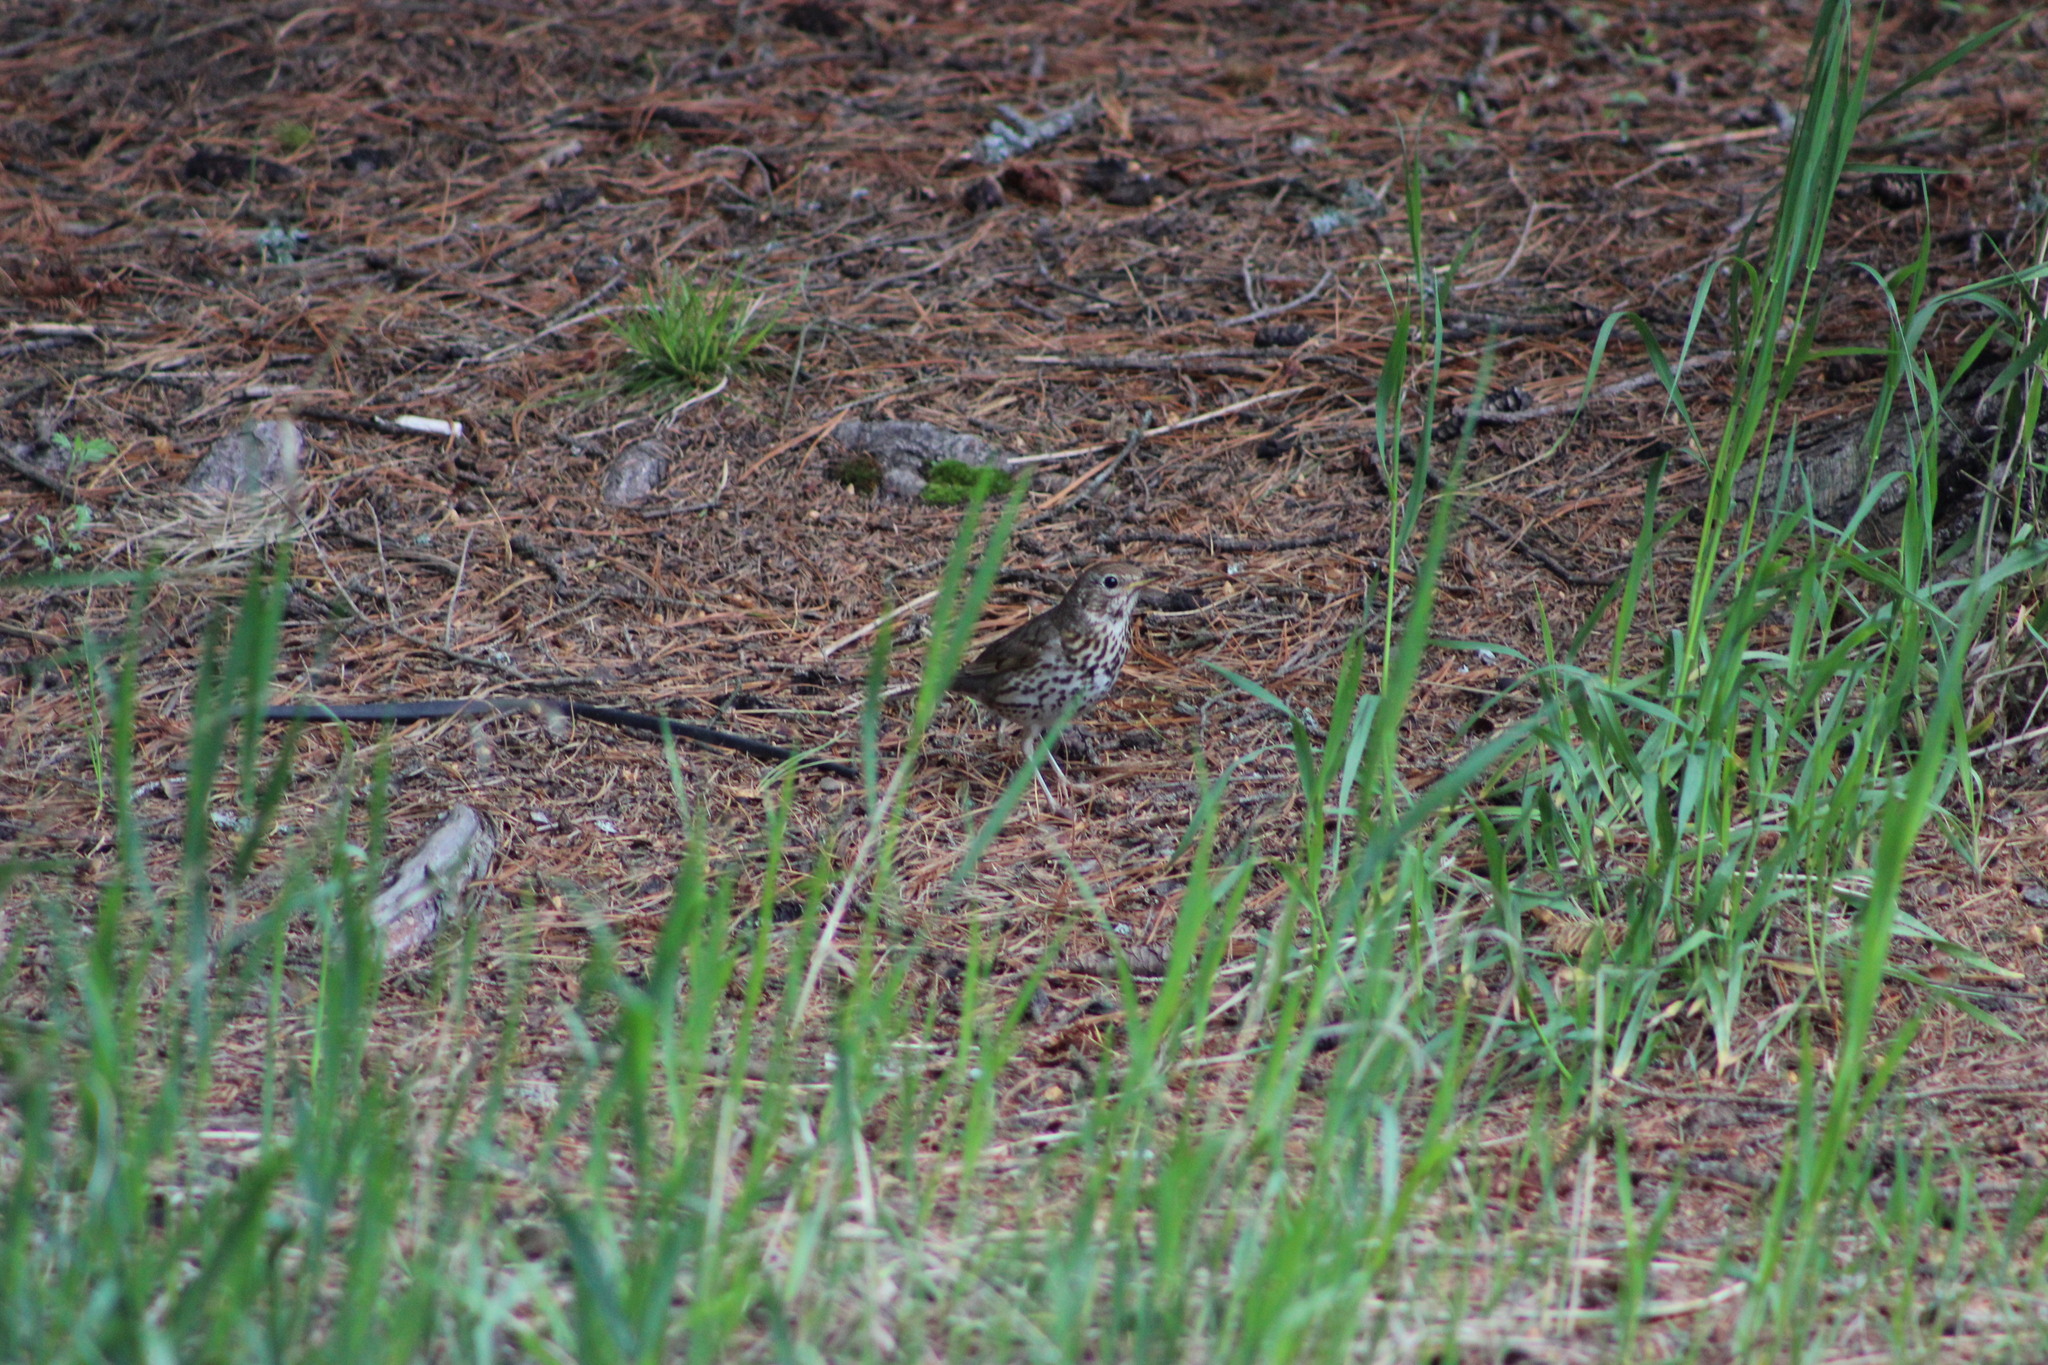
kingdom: Animalia
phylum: Chordata
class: Aves
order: Passeriformes
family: Turdidae
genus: Turdus
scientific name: Turdus philomelos
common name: Song thrush
